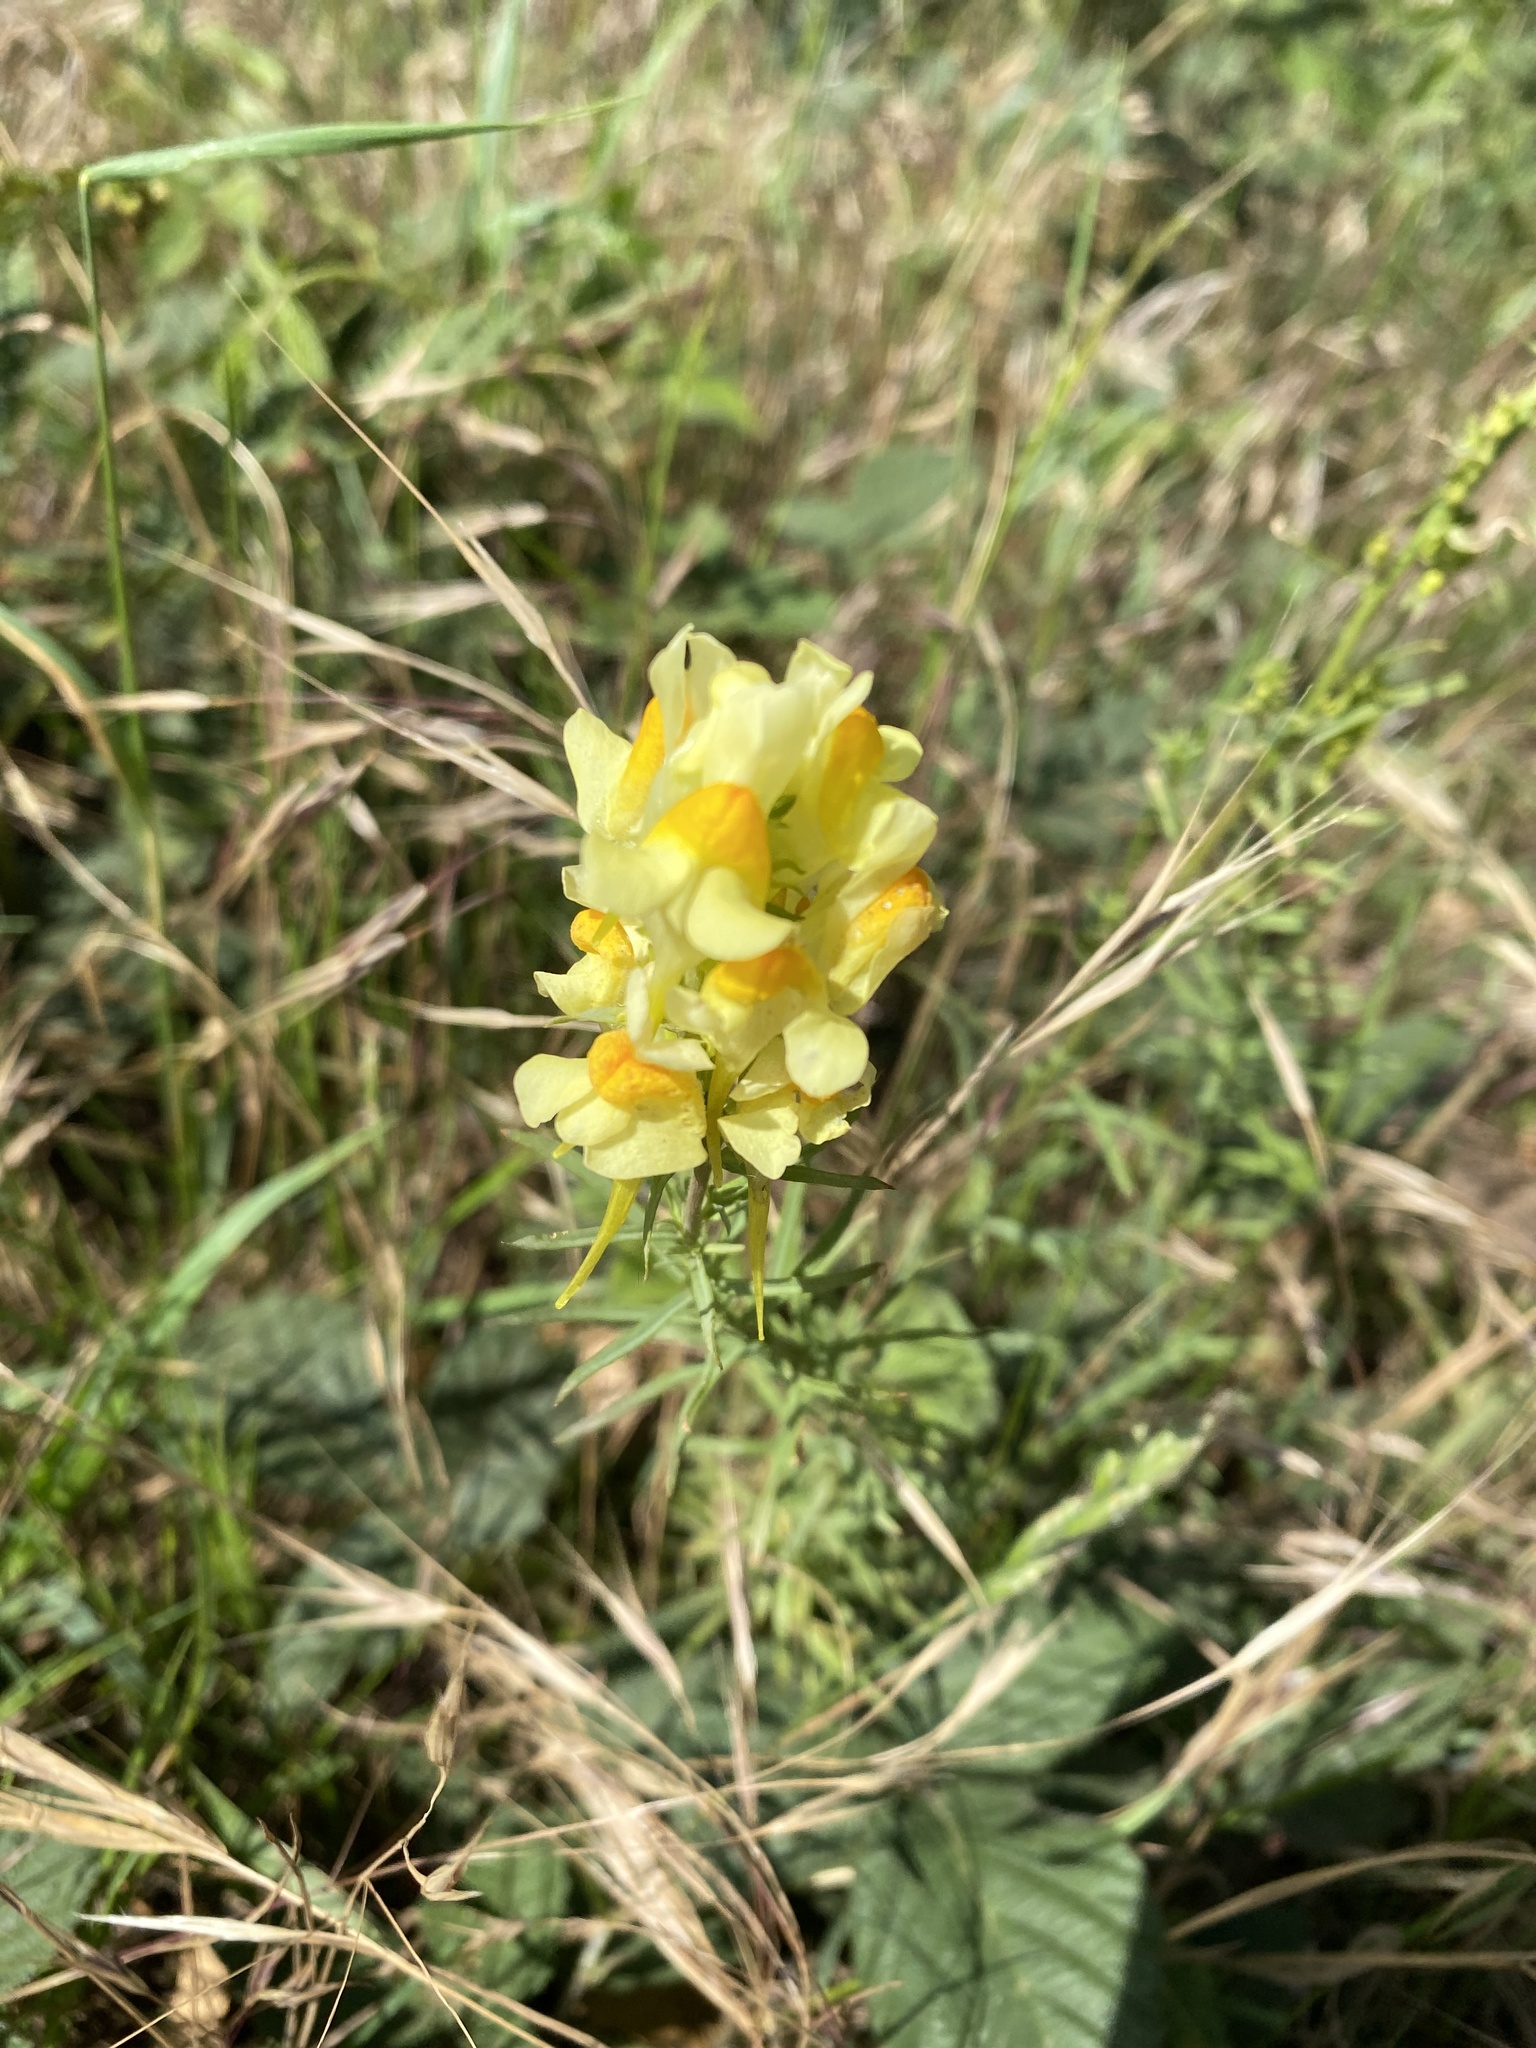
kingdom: Plantae
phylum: Tracheophyta
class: Magnoliopsida
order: Lamiales
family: Plantaginaceae
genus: Linaria
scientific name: Linaria vulgaris
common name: Butter and eggs
